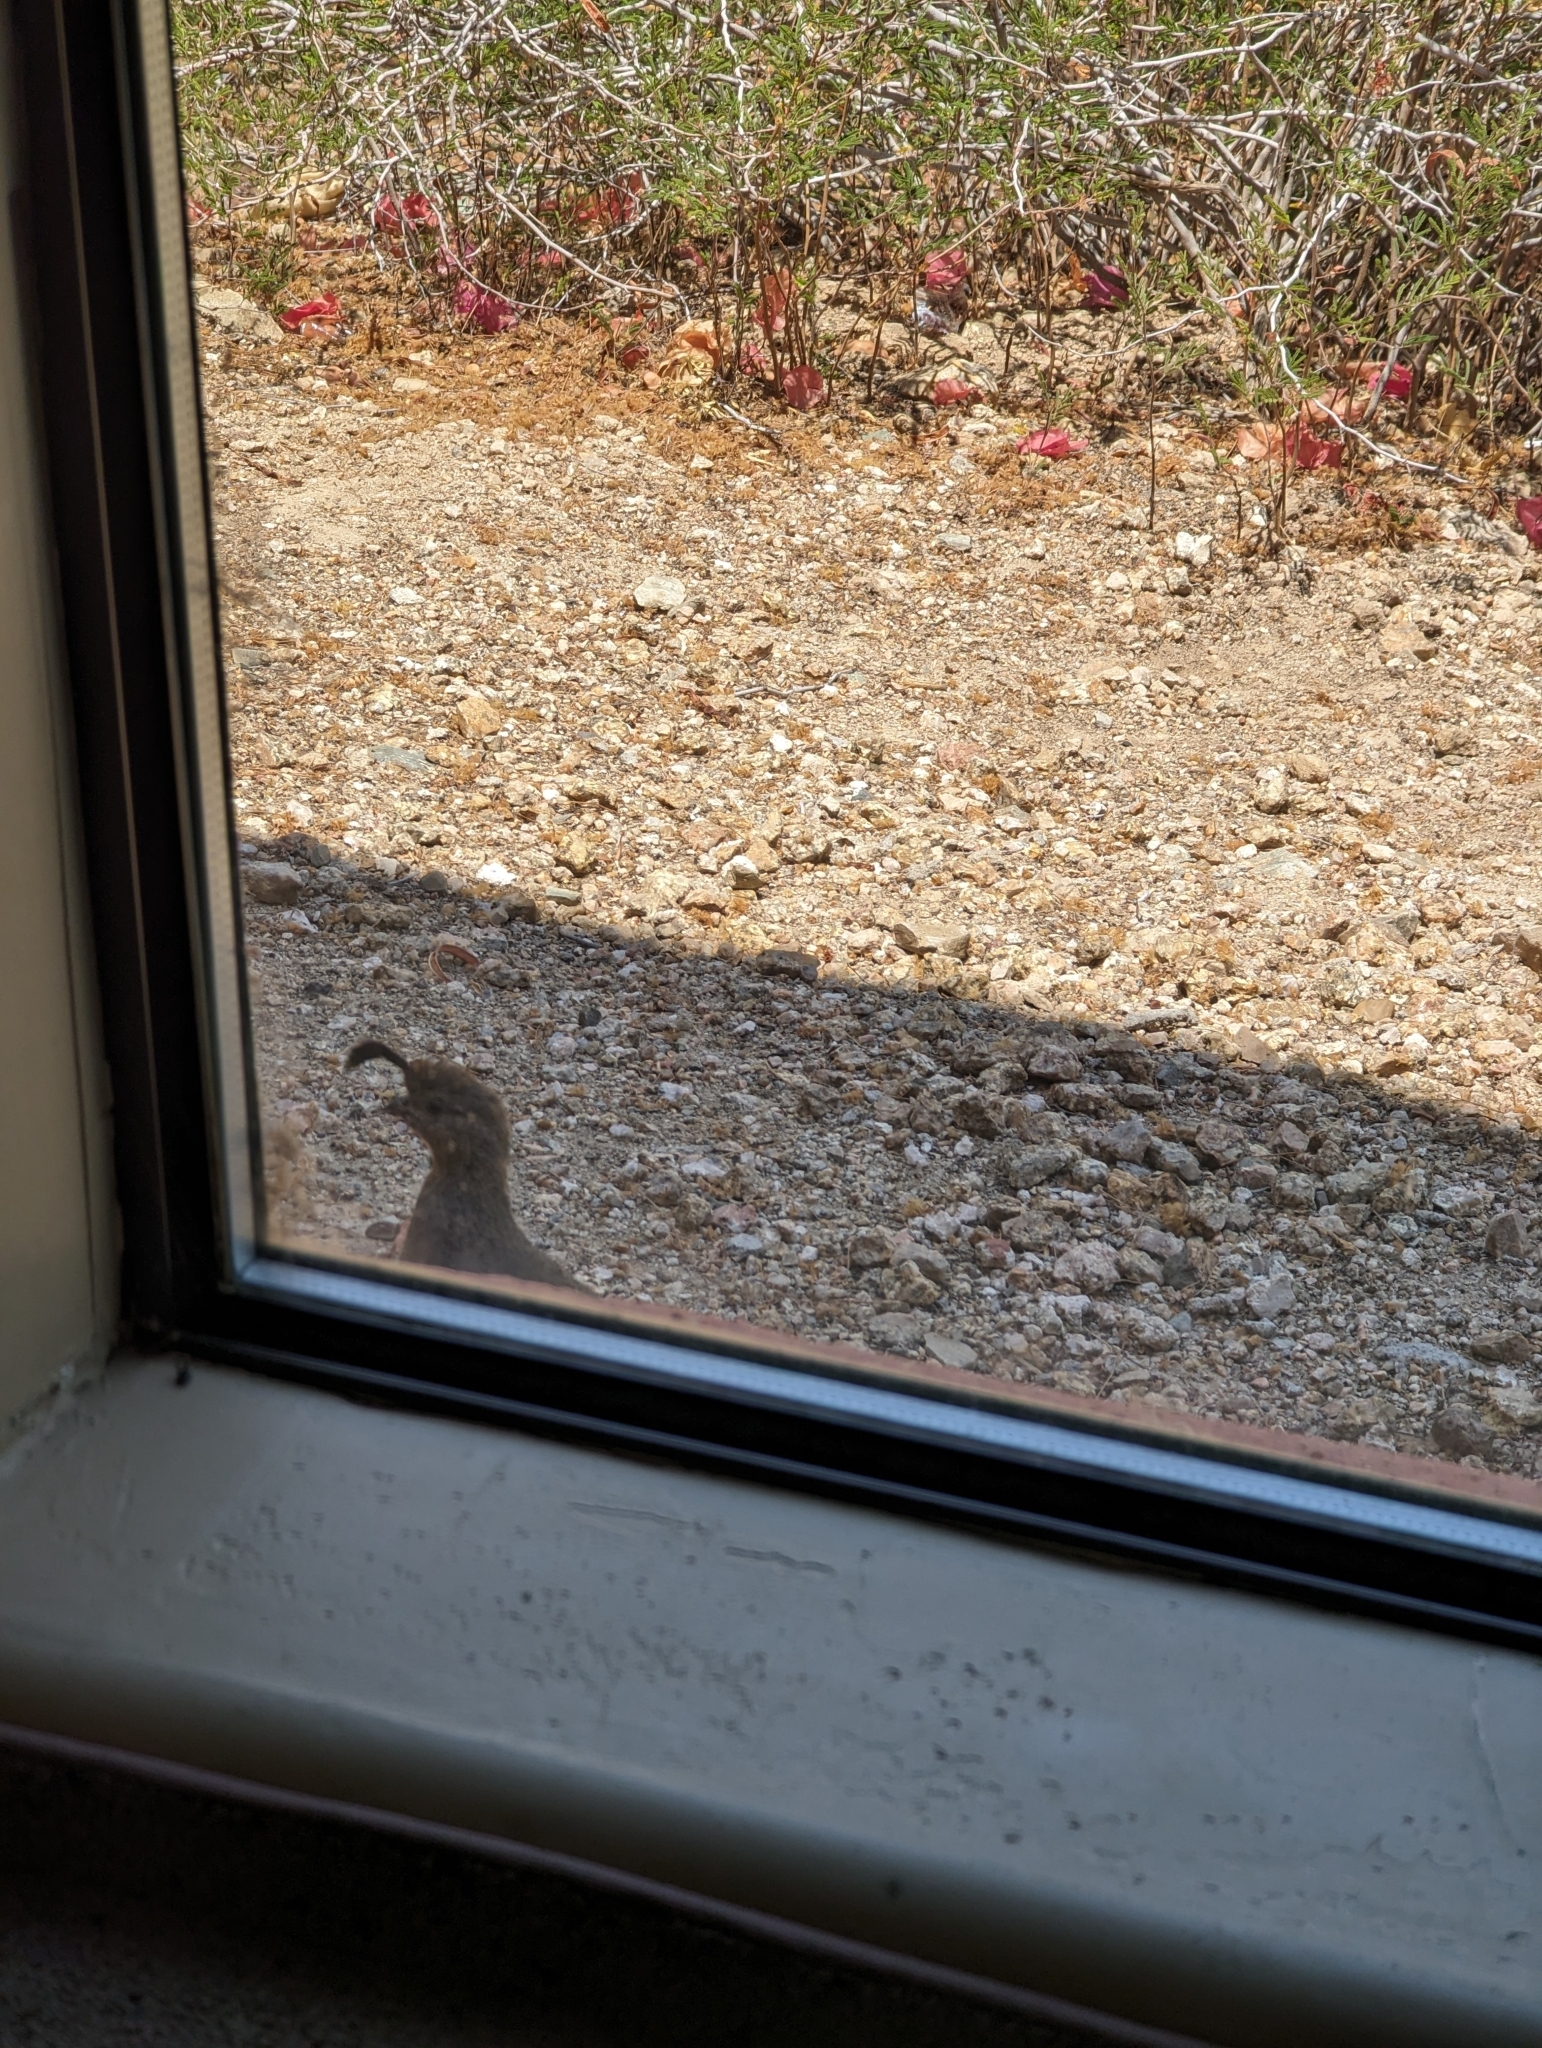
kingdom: Animalia
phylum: Chordata
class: Aves
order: Galliformes
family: Odontophoridae
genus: Callipepla
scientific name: Callipepla gambelii
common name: Gambel's quail
